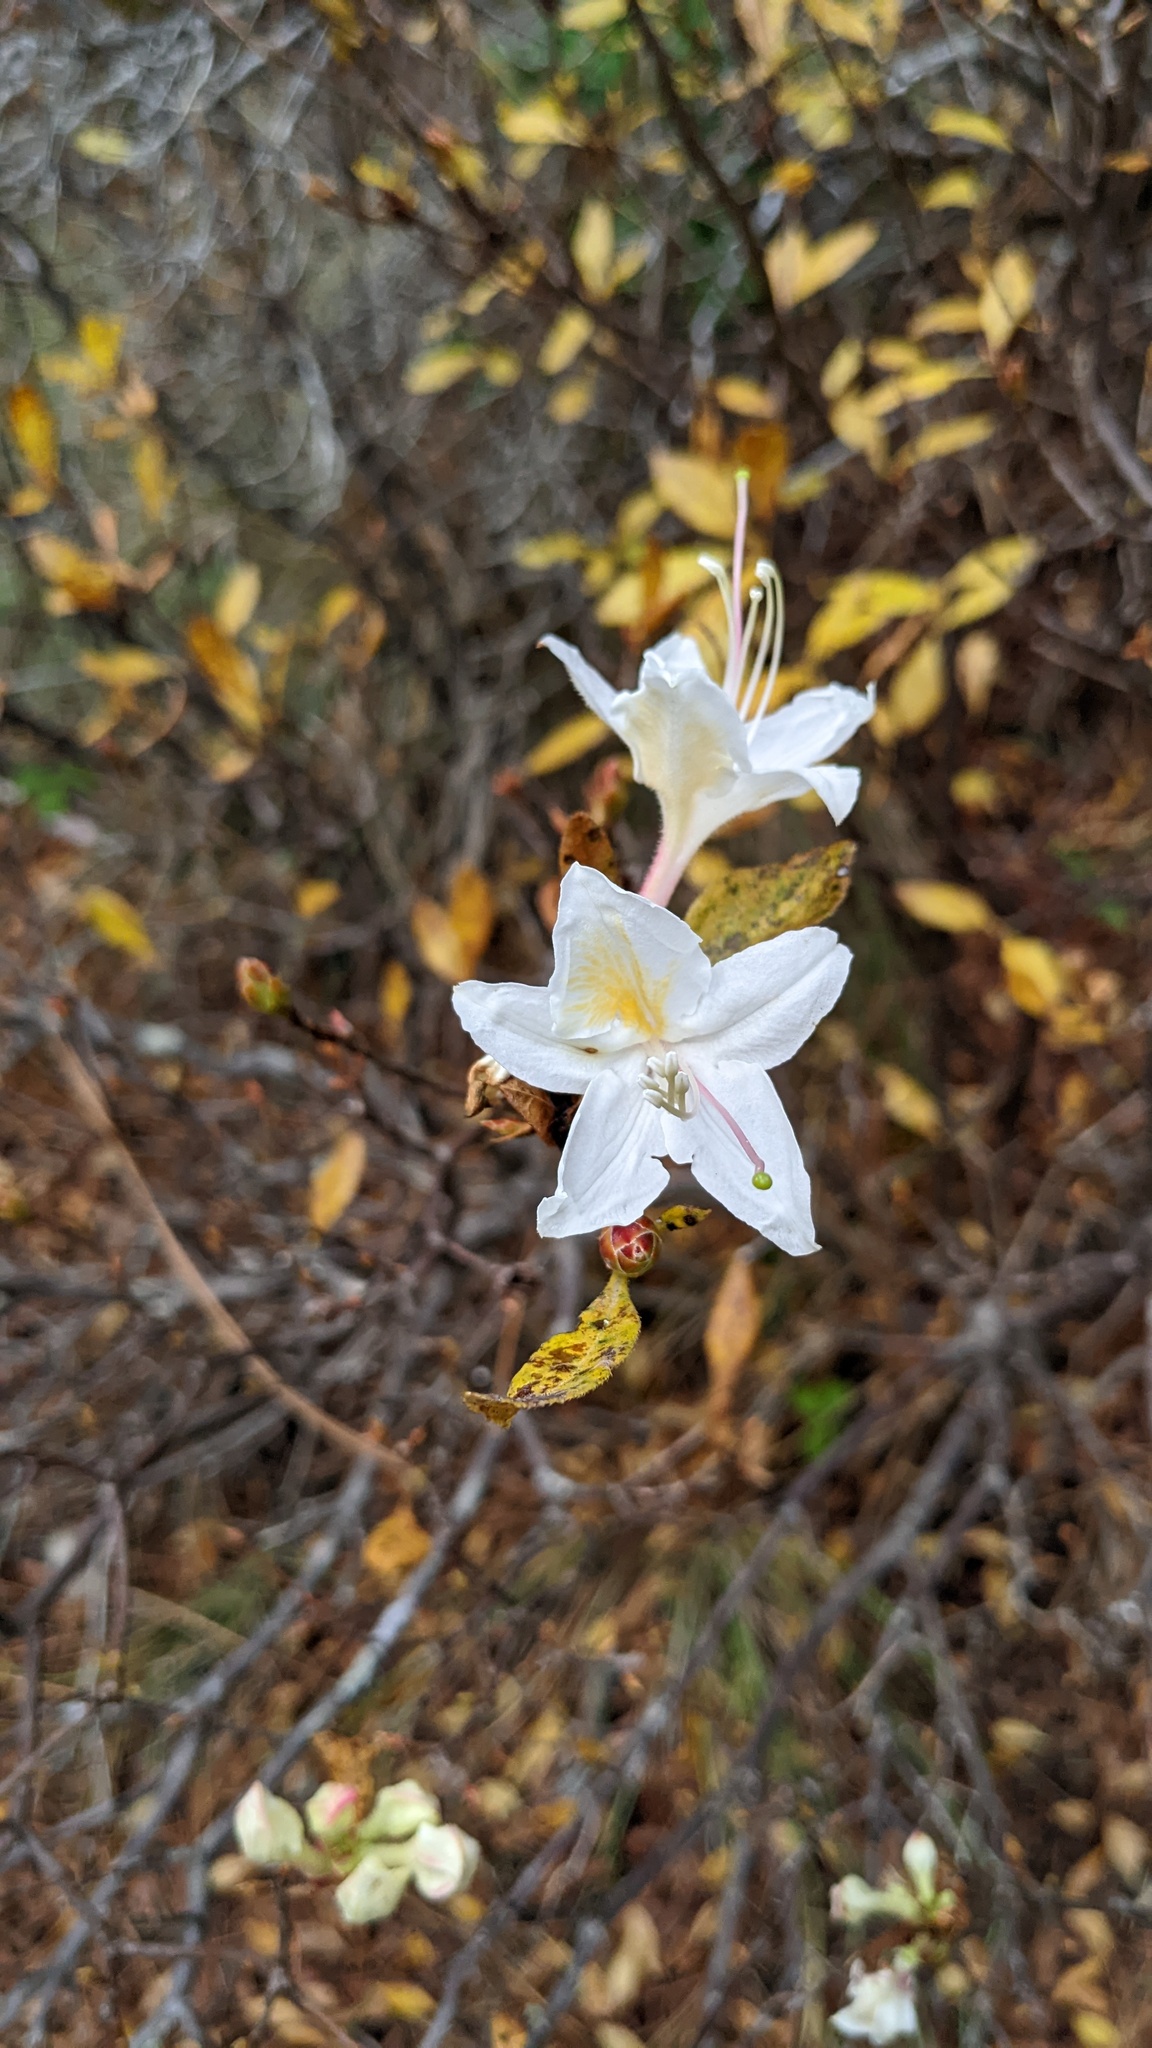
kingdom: Plantae
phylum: Tracheophyta
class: Magnoliopsida
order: Ericales
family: Ericaceae
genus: Rhododendron
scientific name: Rhododendron occidentale
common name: Western azalea
